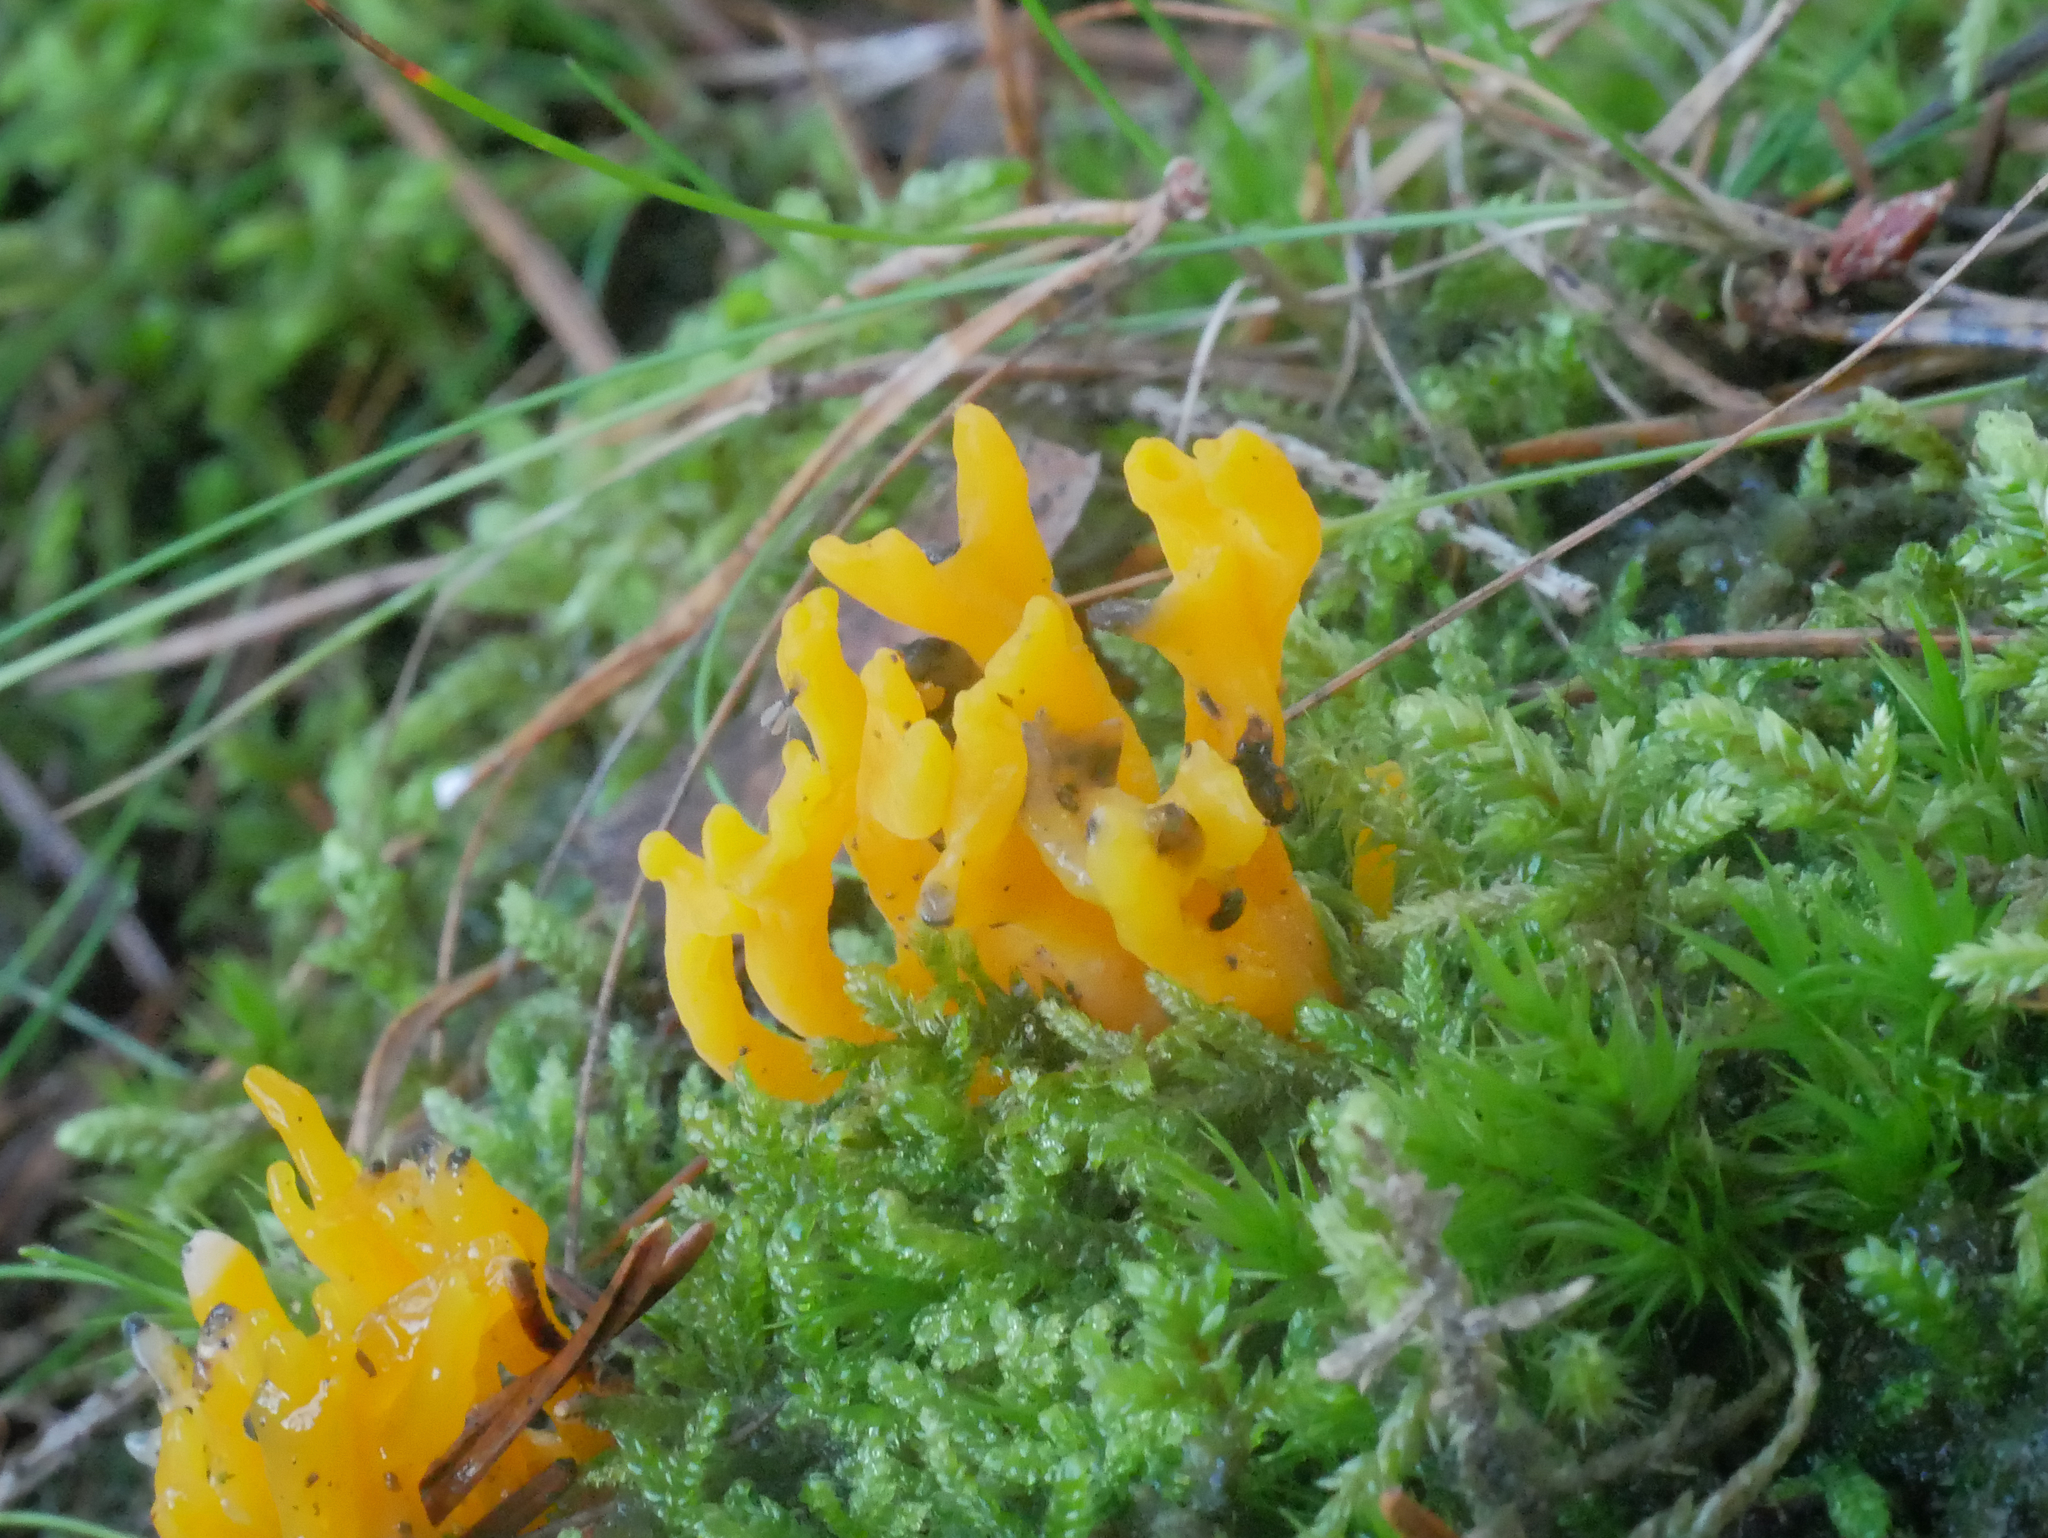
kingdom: Fungi
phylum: Basidiomycota
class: Dacrymycetes
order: Dacrymycetales
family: Dacrymycetaceae
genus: Calocera
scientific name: Calocera viscosa
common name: Yellow stagshorn
